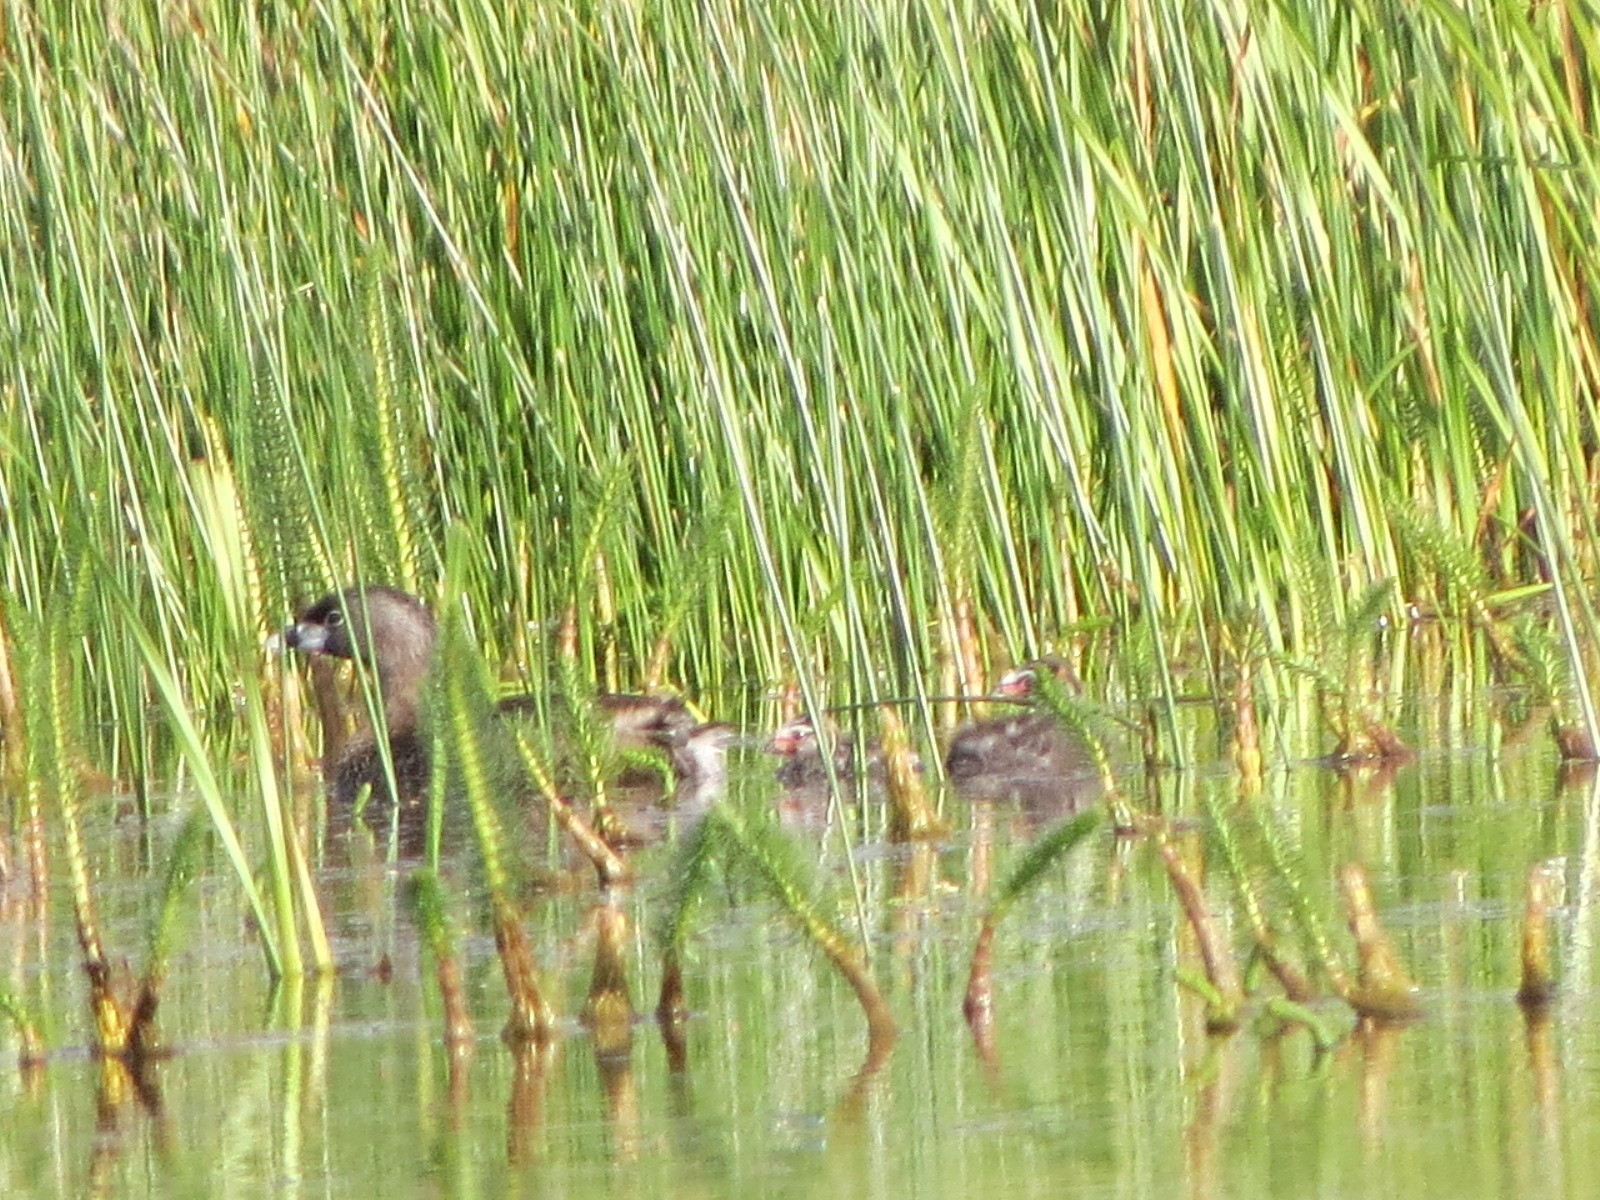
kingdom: Animalia
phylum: Chordata
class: Aves
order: Podicipediformes
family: Podicipedidae
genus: Podilymbus
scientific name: Podilymbus podiceps
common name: Pied-billed grebe
